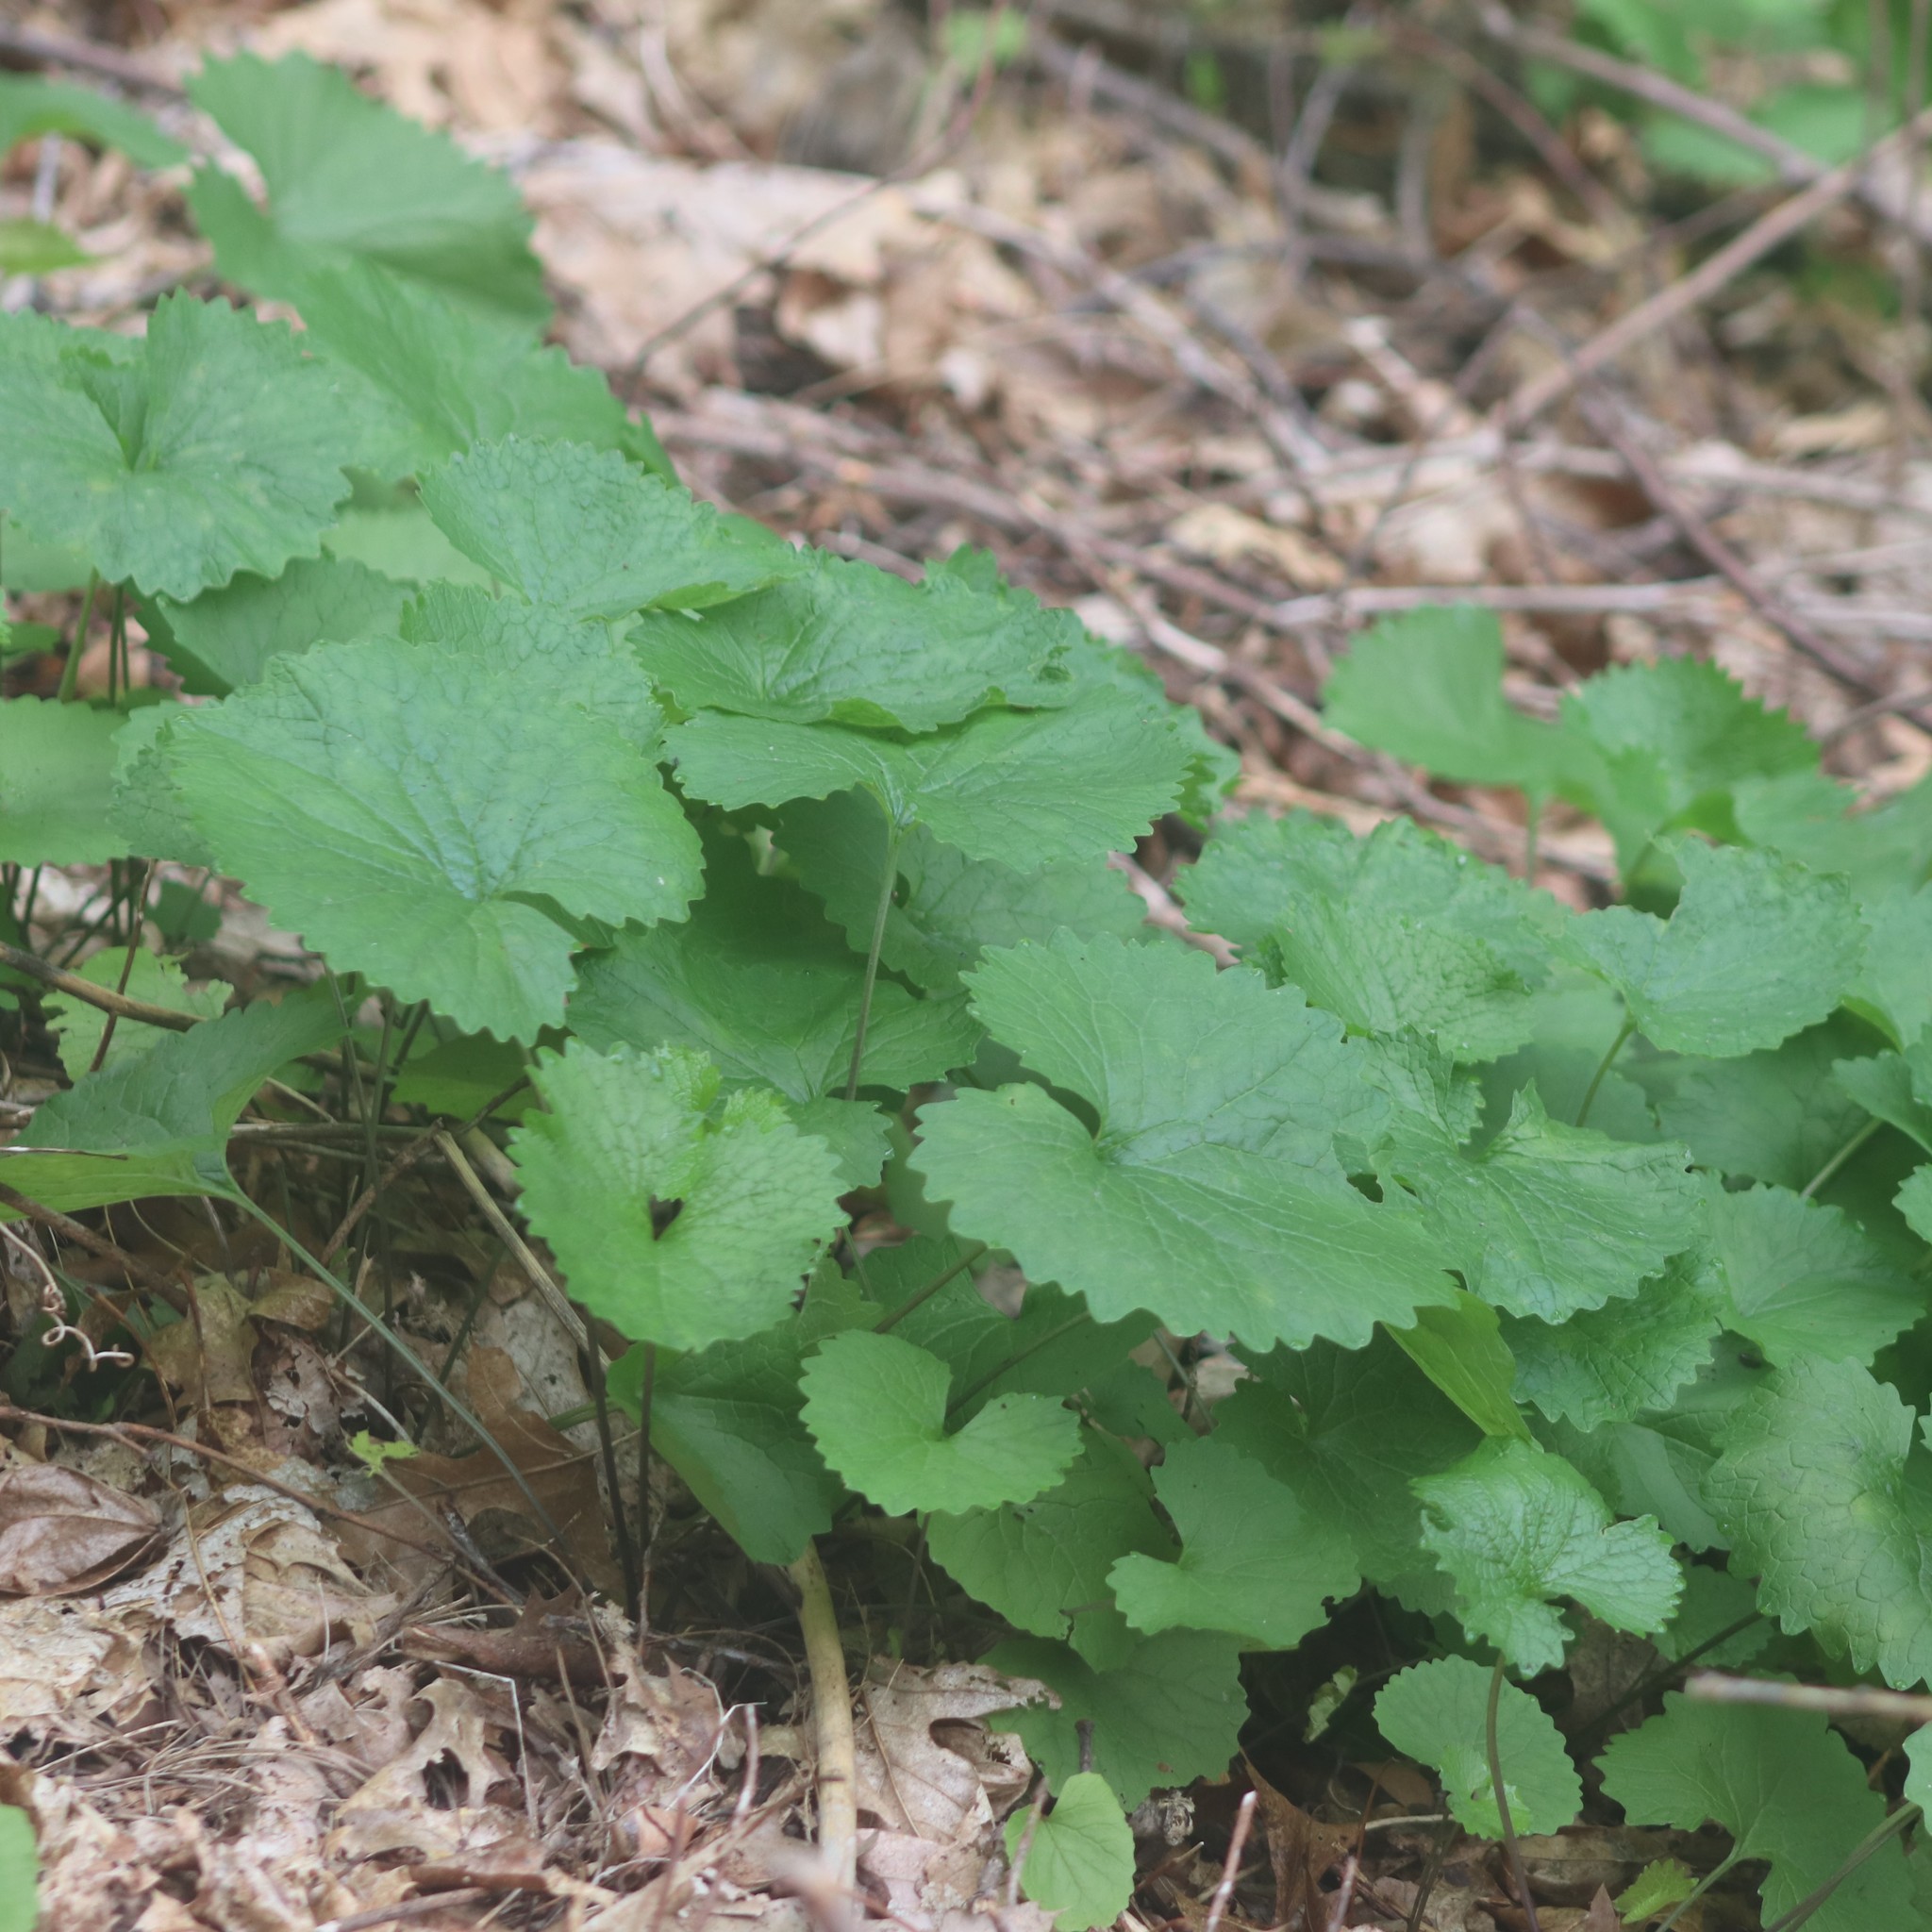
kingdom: Plantae
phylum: Tracheophyta
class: Magnoliopsida
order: Brassicales
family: Brassicaceae
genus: Alliaria
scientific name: Alliaria petiolata
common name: Garlic mustard
